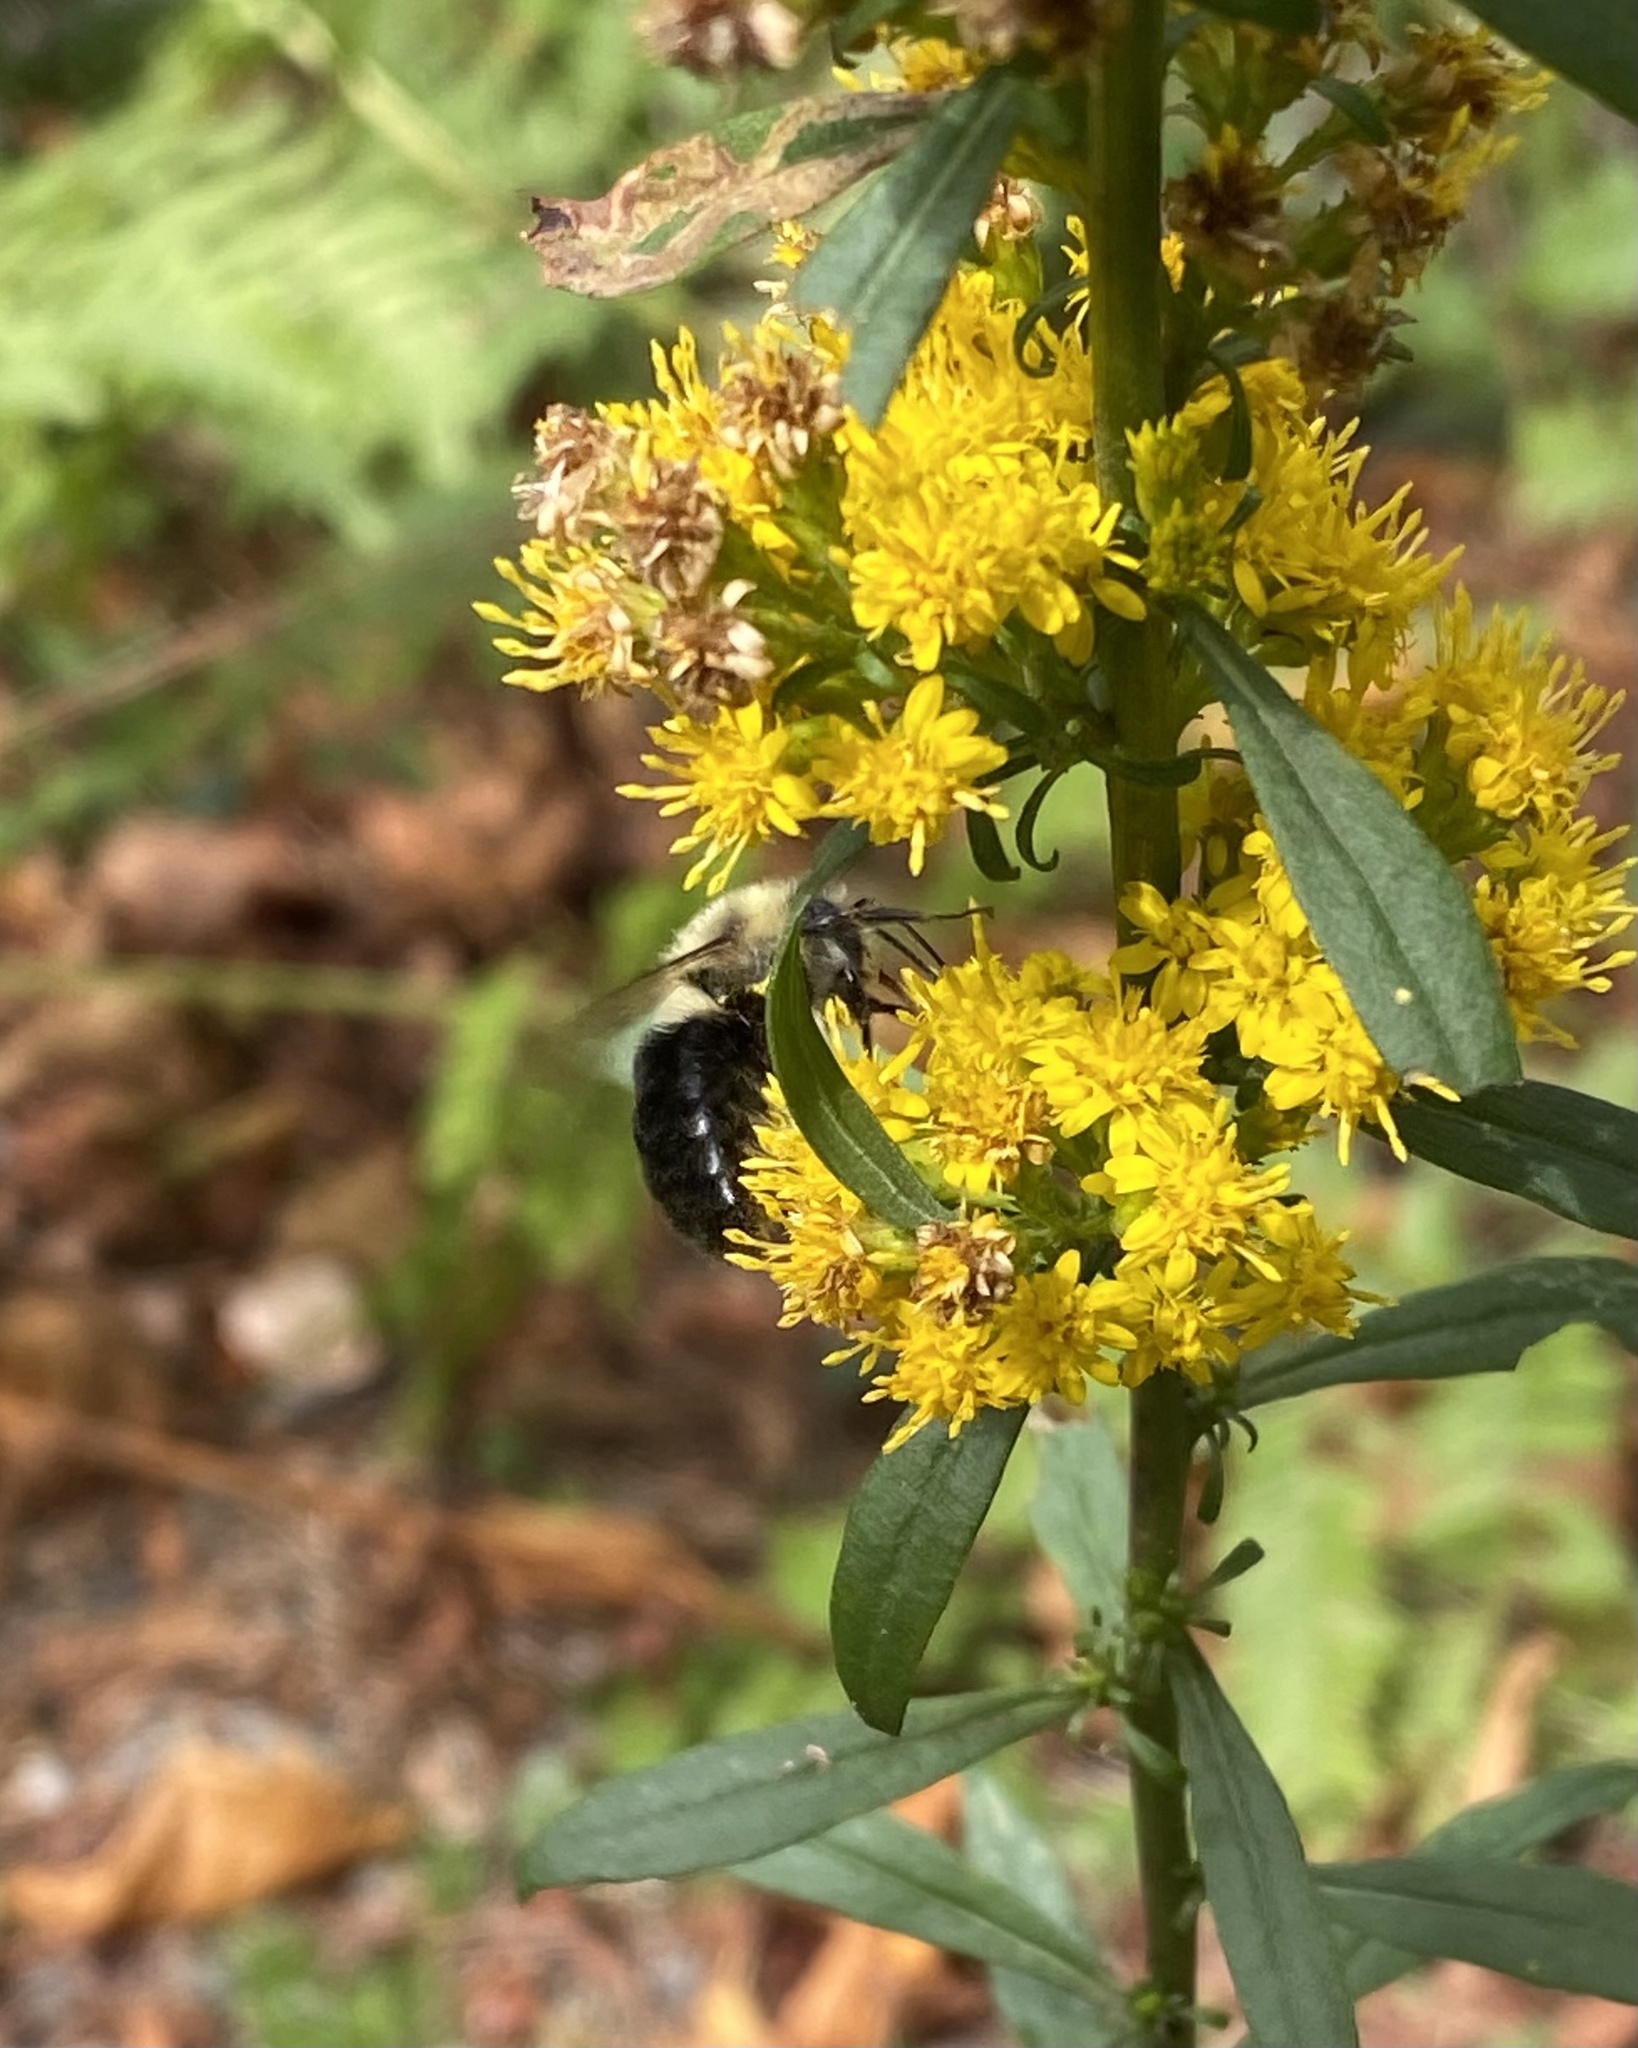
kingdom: Animalia
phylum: Arthropoda
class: Insecta
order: Hymenoptera
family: Apidae
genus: Bombus
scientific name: Bombus impatiens
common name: Common eastern bumble bee
